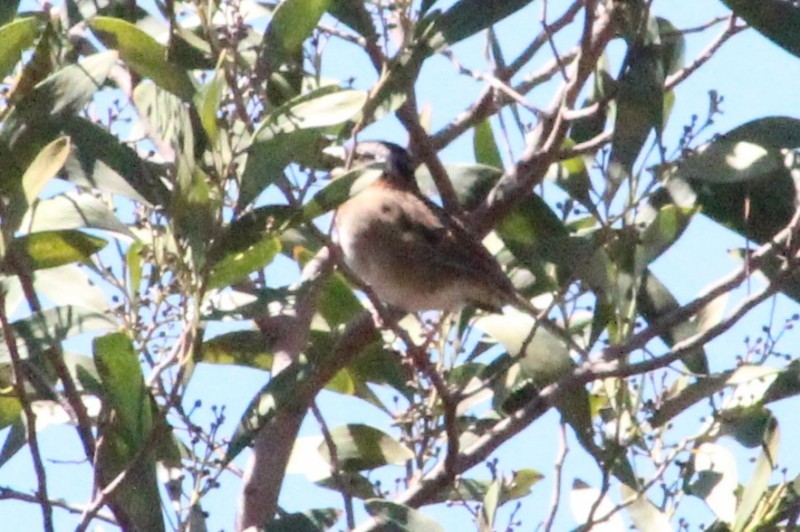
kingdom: Animalia
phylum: Chordata
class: Aves
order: Passeriformes
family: Passerellidae
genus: Zonotrichia
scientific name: Zonotrichia capensis
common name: Rufous-collared sparrow
